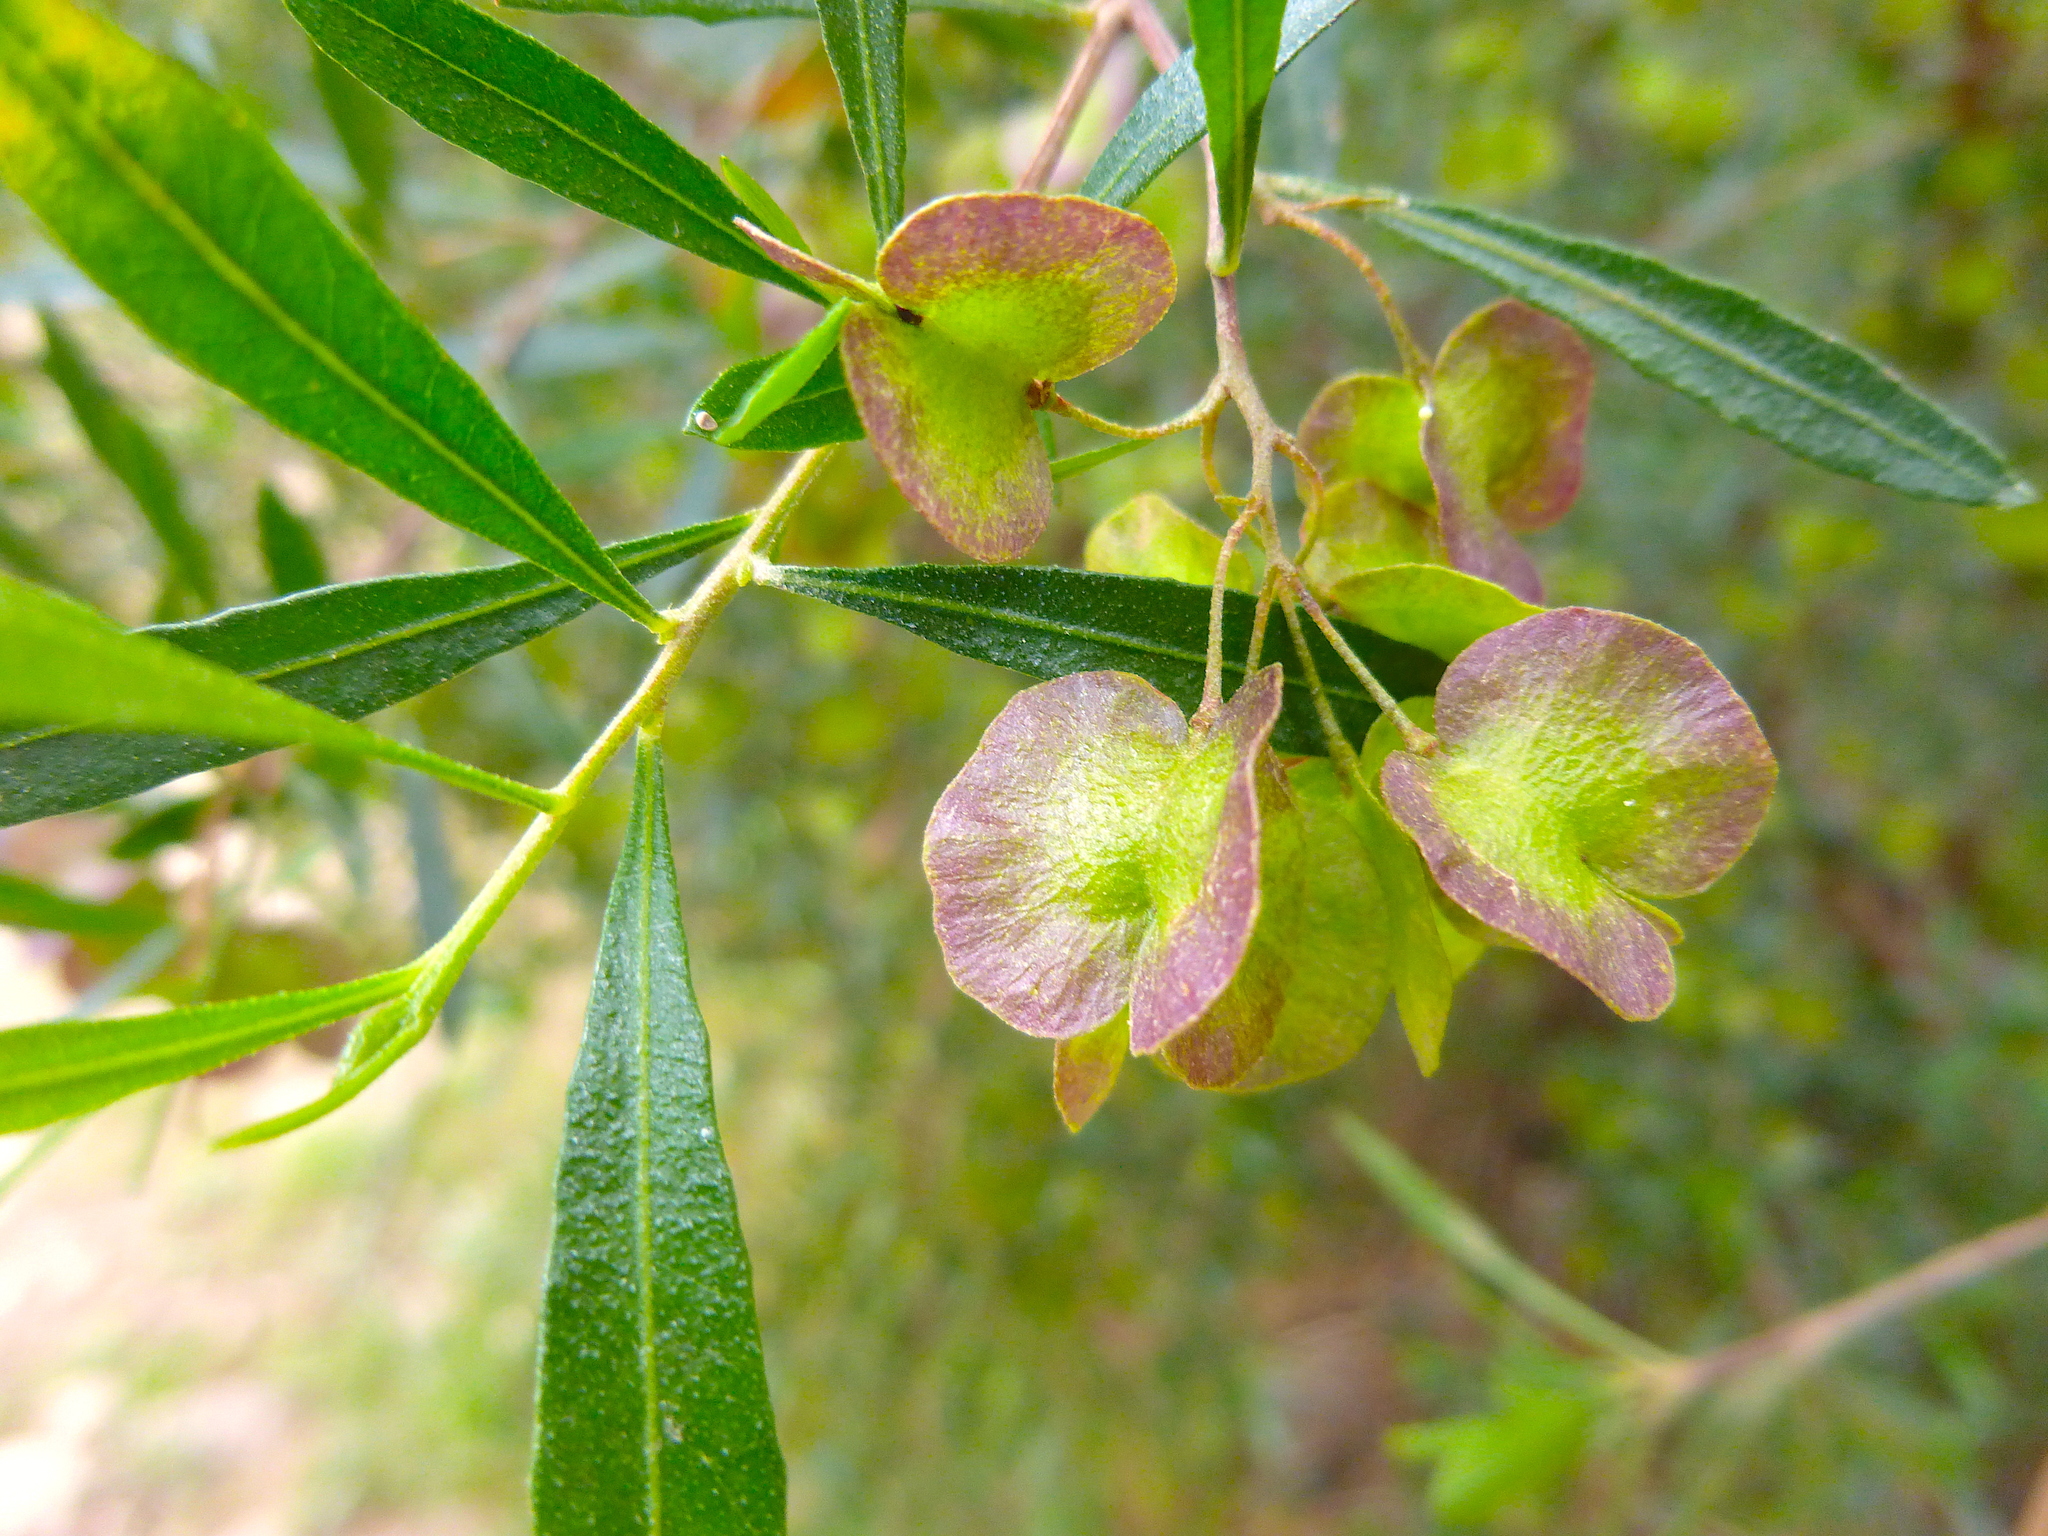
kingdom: Plantae
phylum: Tracheophyta
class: Magnoliopsida
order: Sapindales
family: Sapindaceae
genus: Dodonaea
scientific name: Dodonaea viscosa
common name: Hopbush
